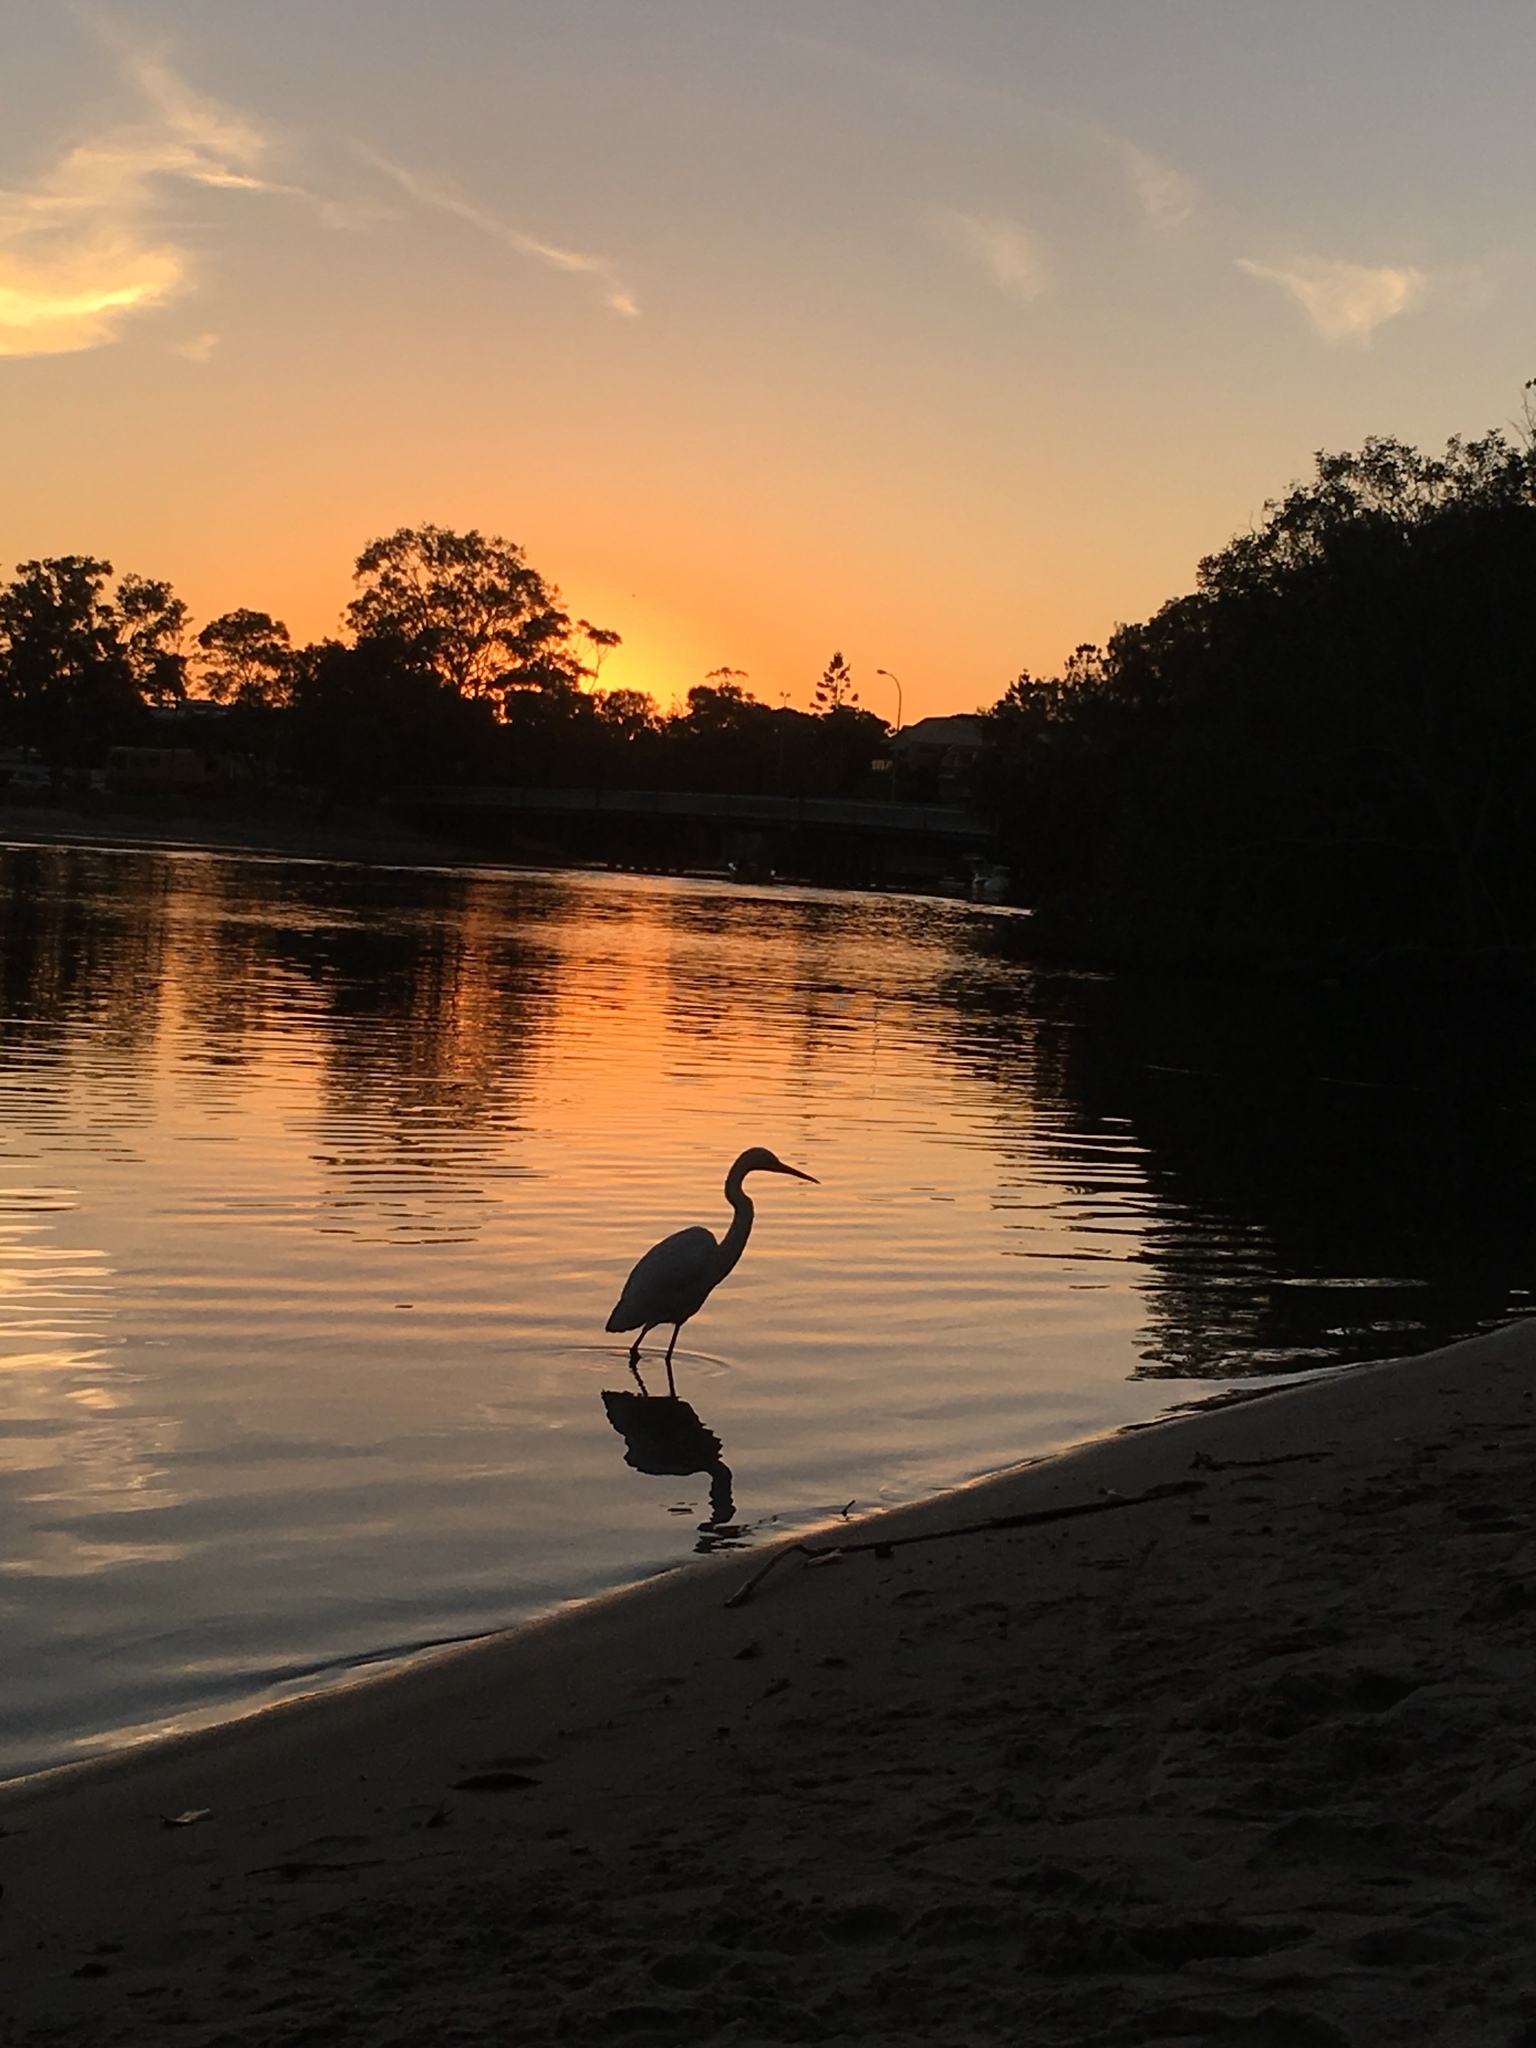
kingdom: Animalia
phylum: Chordata
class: Aves
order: Pelecaniformes
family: Ardeidae
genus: Ardea
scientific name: Ardea modesta
